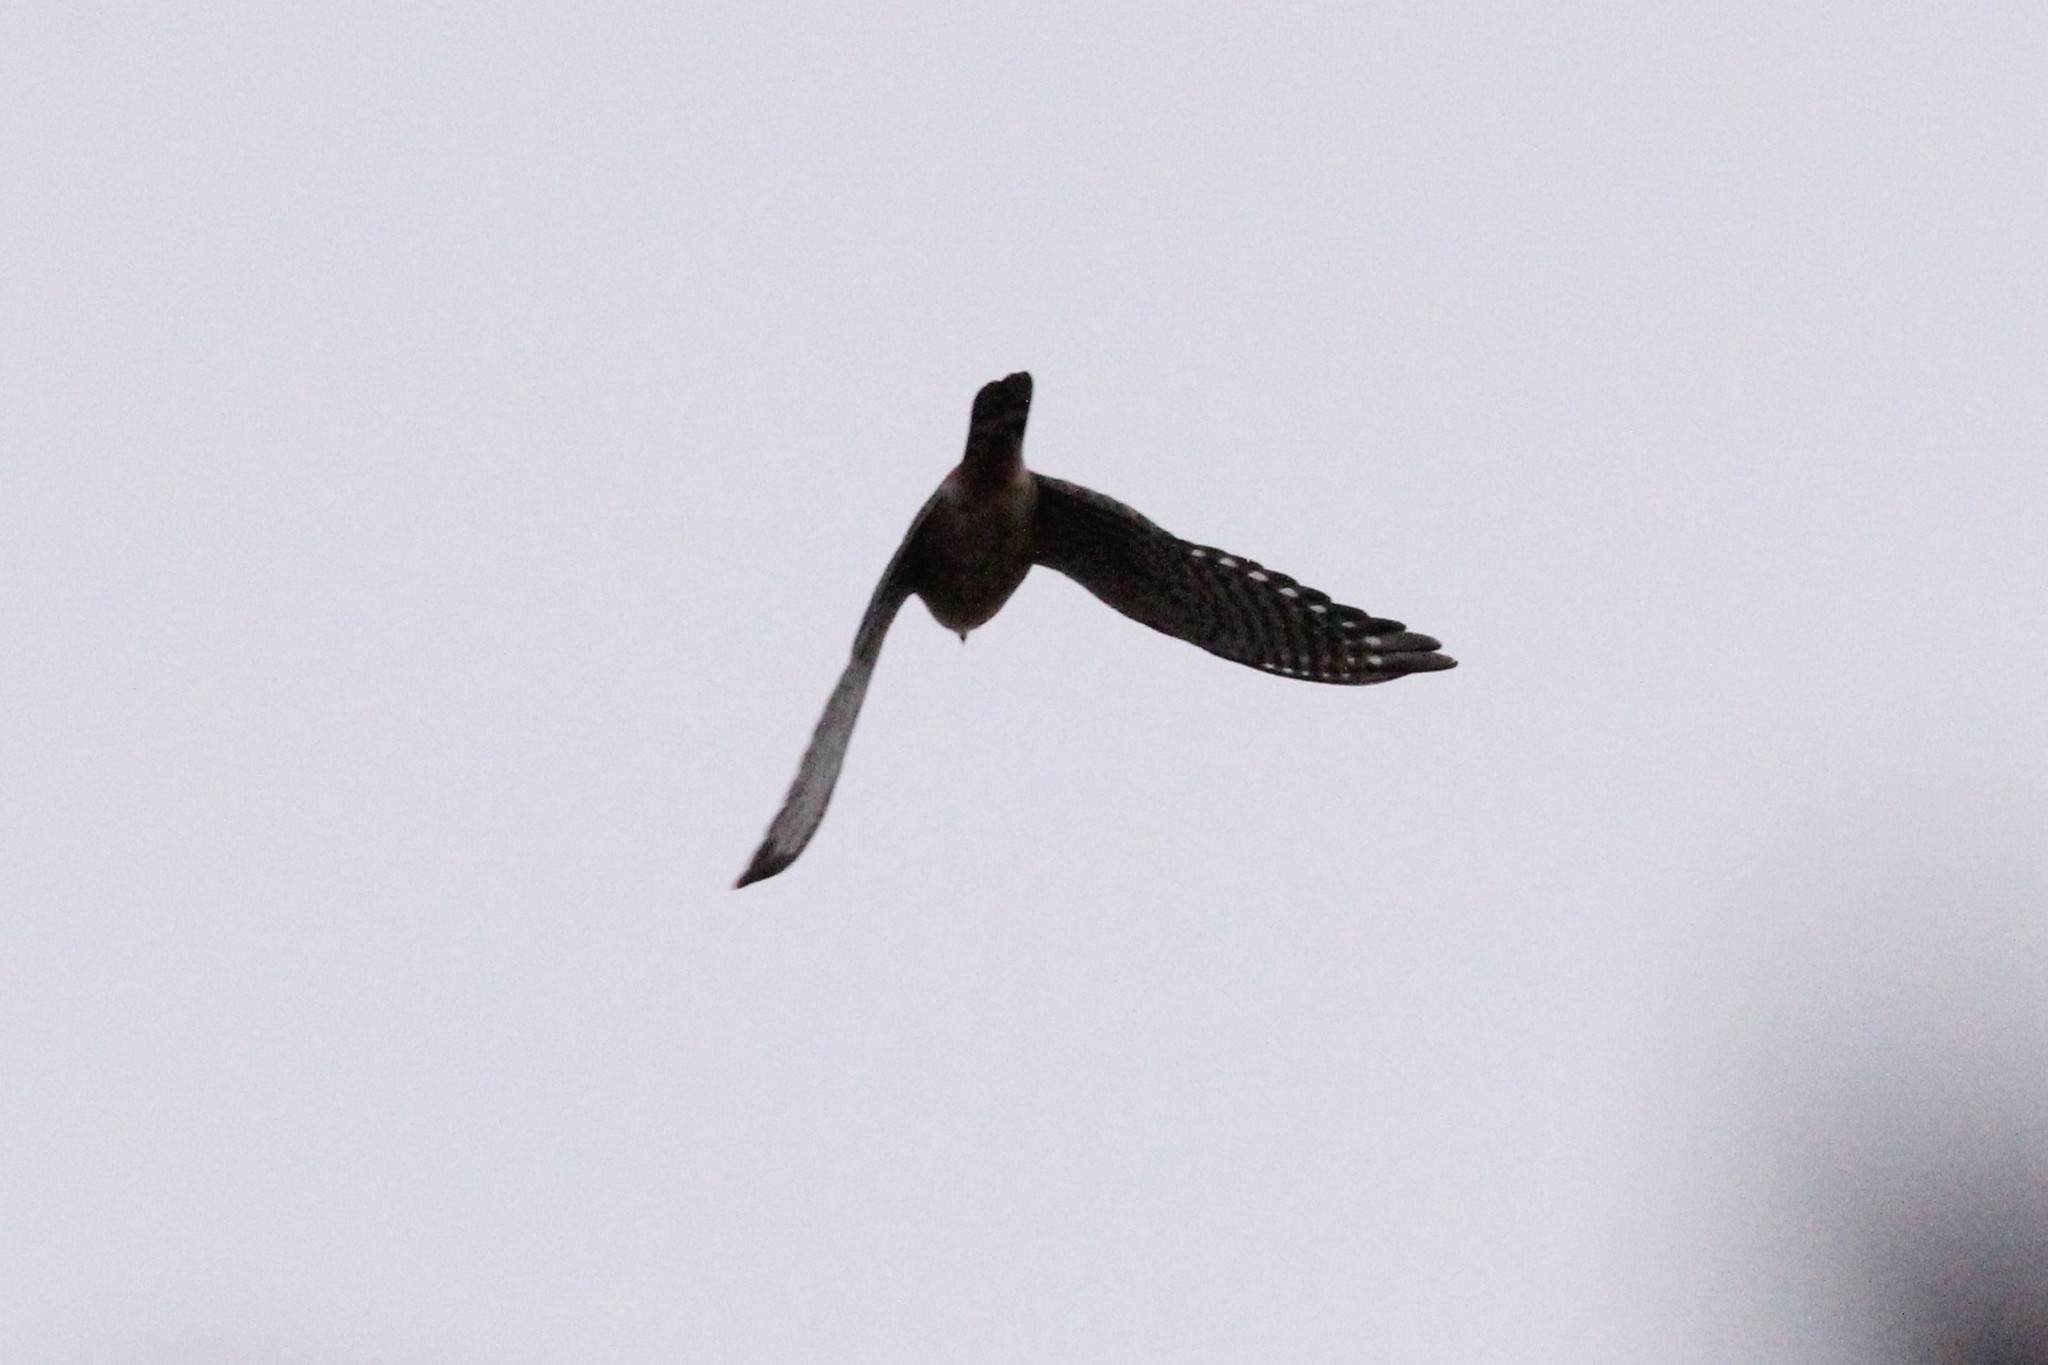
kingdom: Animalia
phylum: Chordata
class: Aves
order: Falconiformes
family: Falconidae
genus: Falco
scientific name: Falco sparverius
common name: American kestrel
